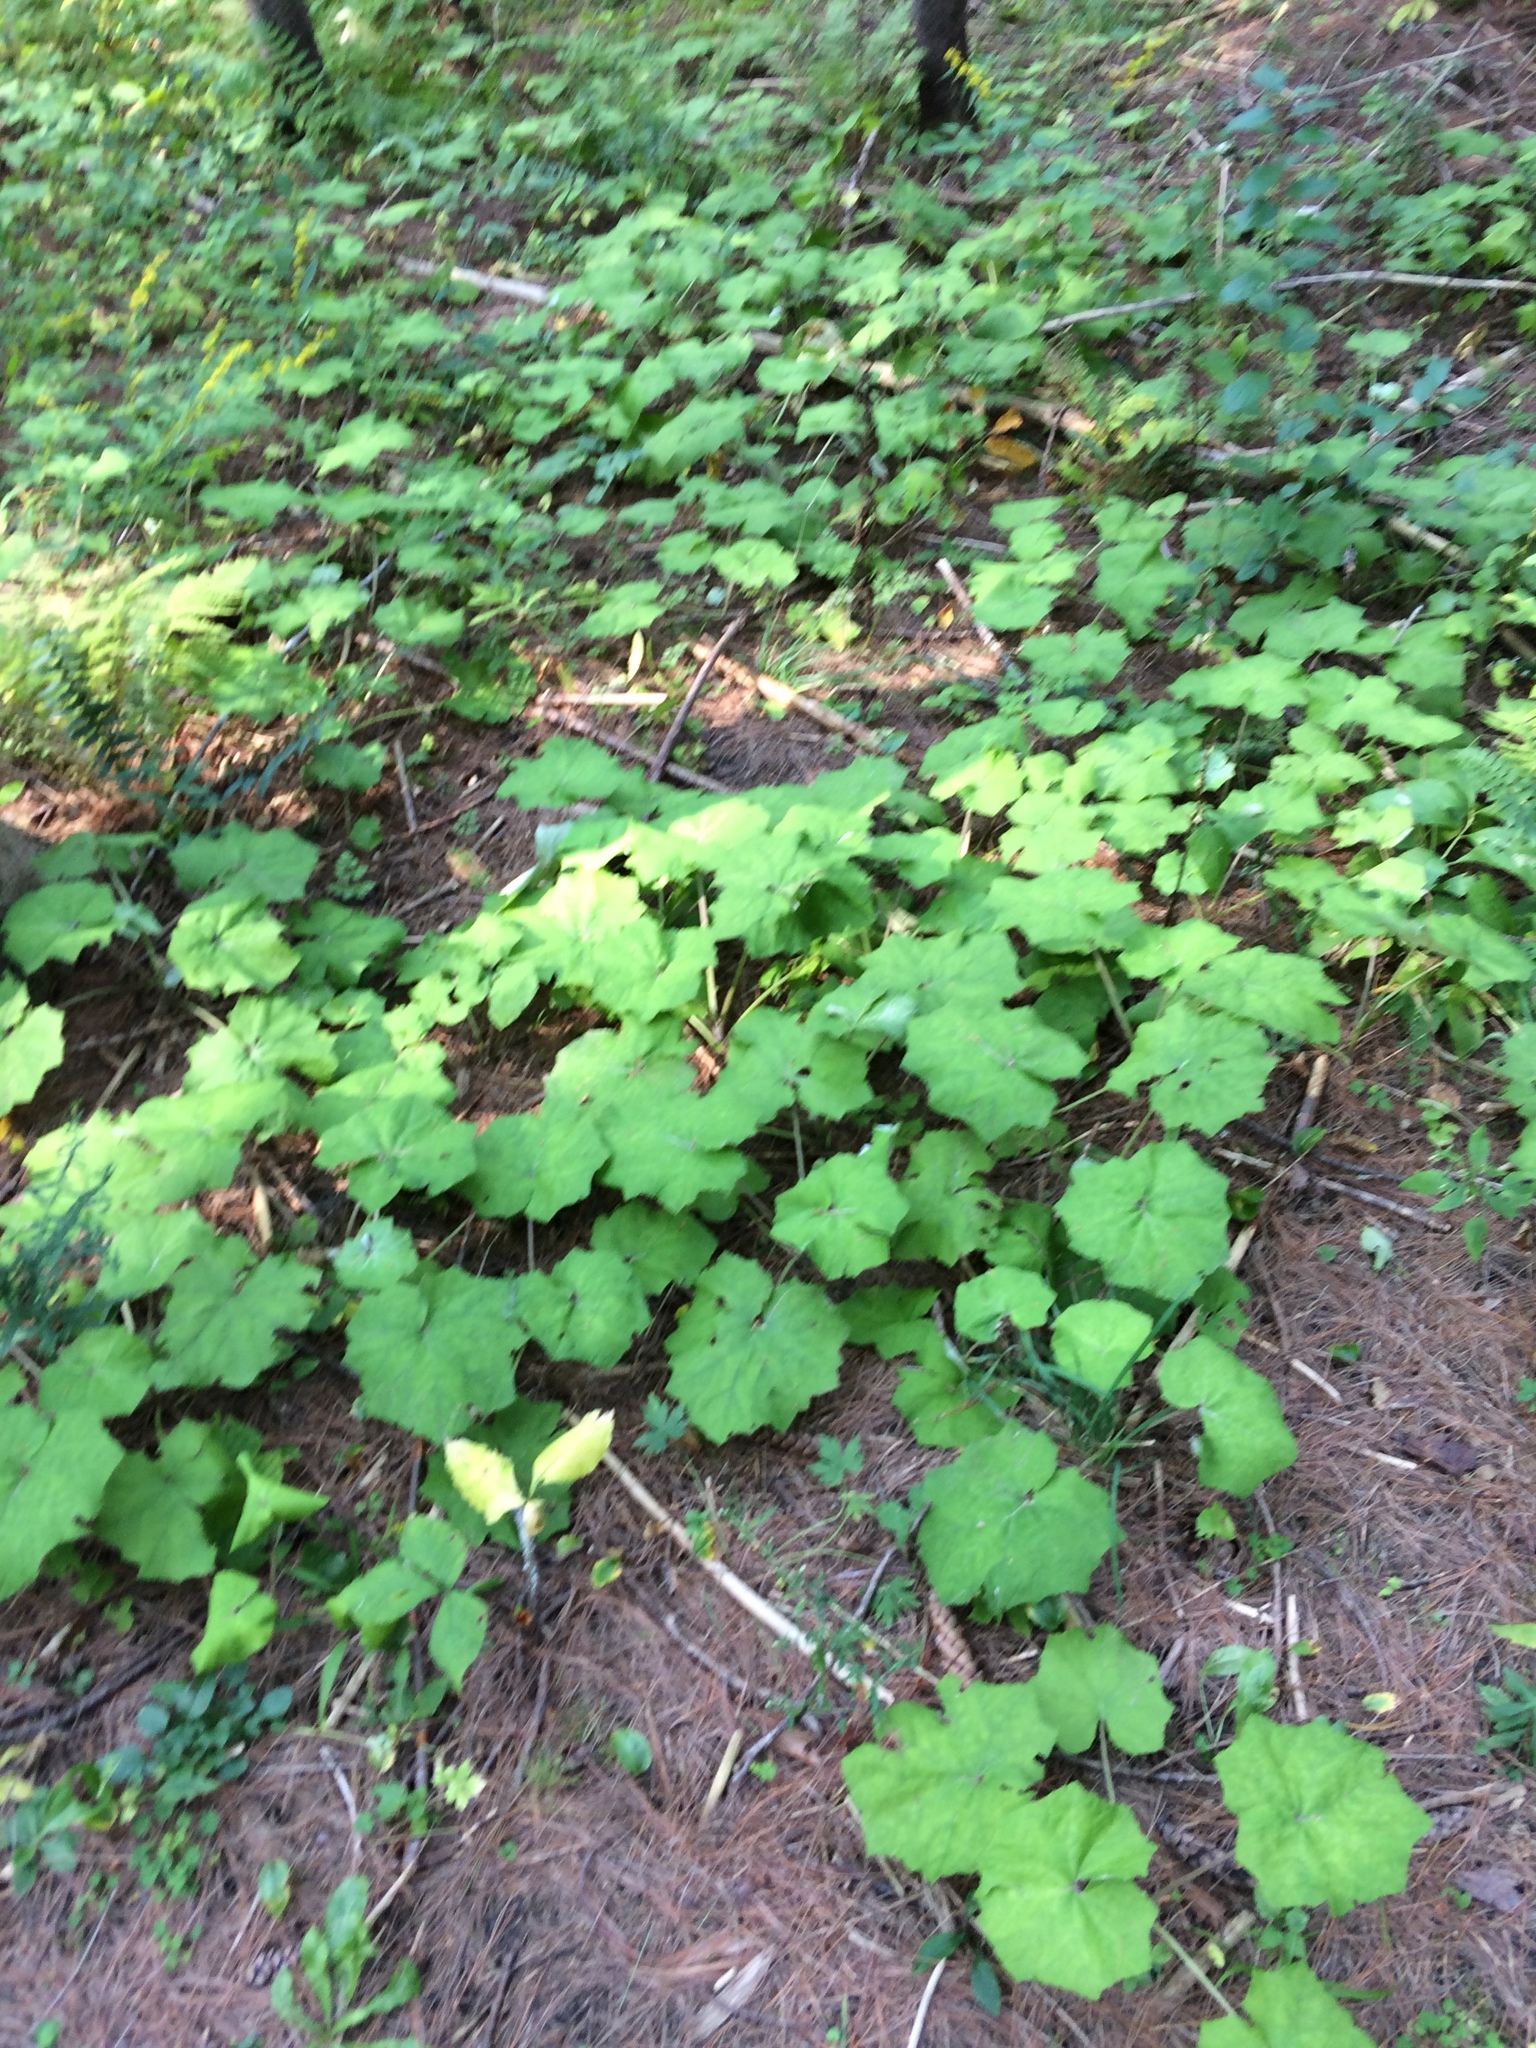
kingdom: Plantae
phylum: Tracheophyta
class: Magnoliopsida
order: Asterales
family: Asteraceae
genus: Tussilago
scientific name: Tussilago farfara
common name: Coltsfoot
